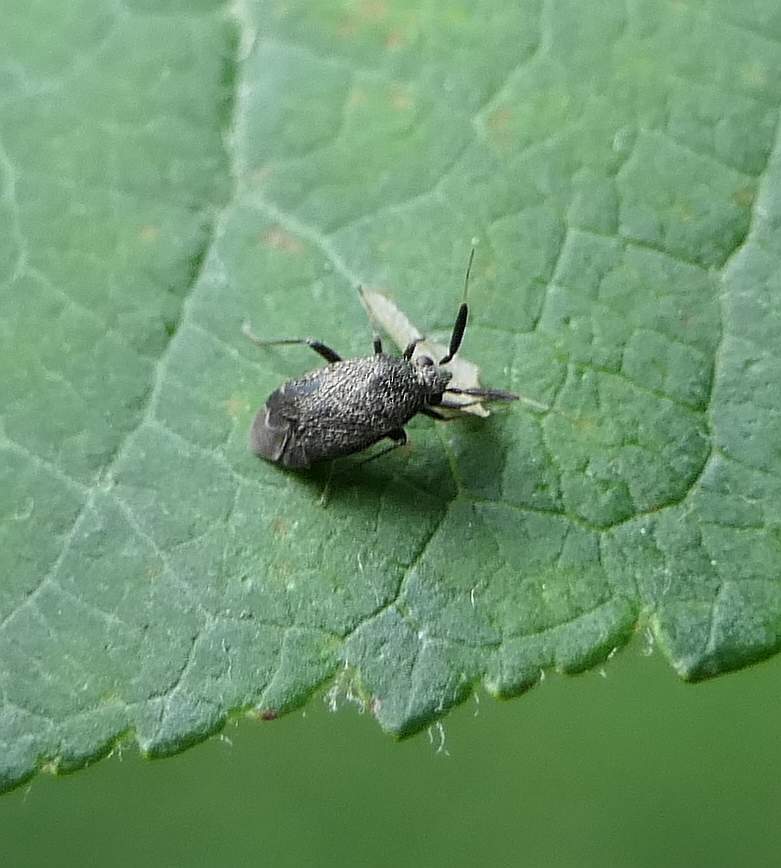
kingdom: Animalia
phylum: Arthropoda
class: Insecta
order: Hemiptera
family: Miridae
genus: Atractotomus
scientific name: Atractotomus
